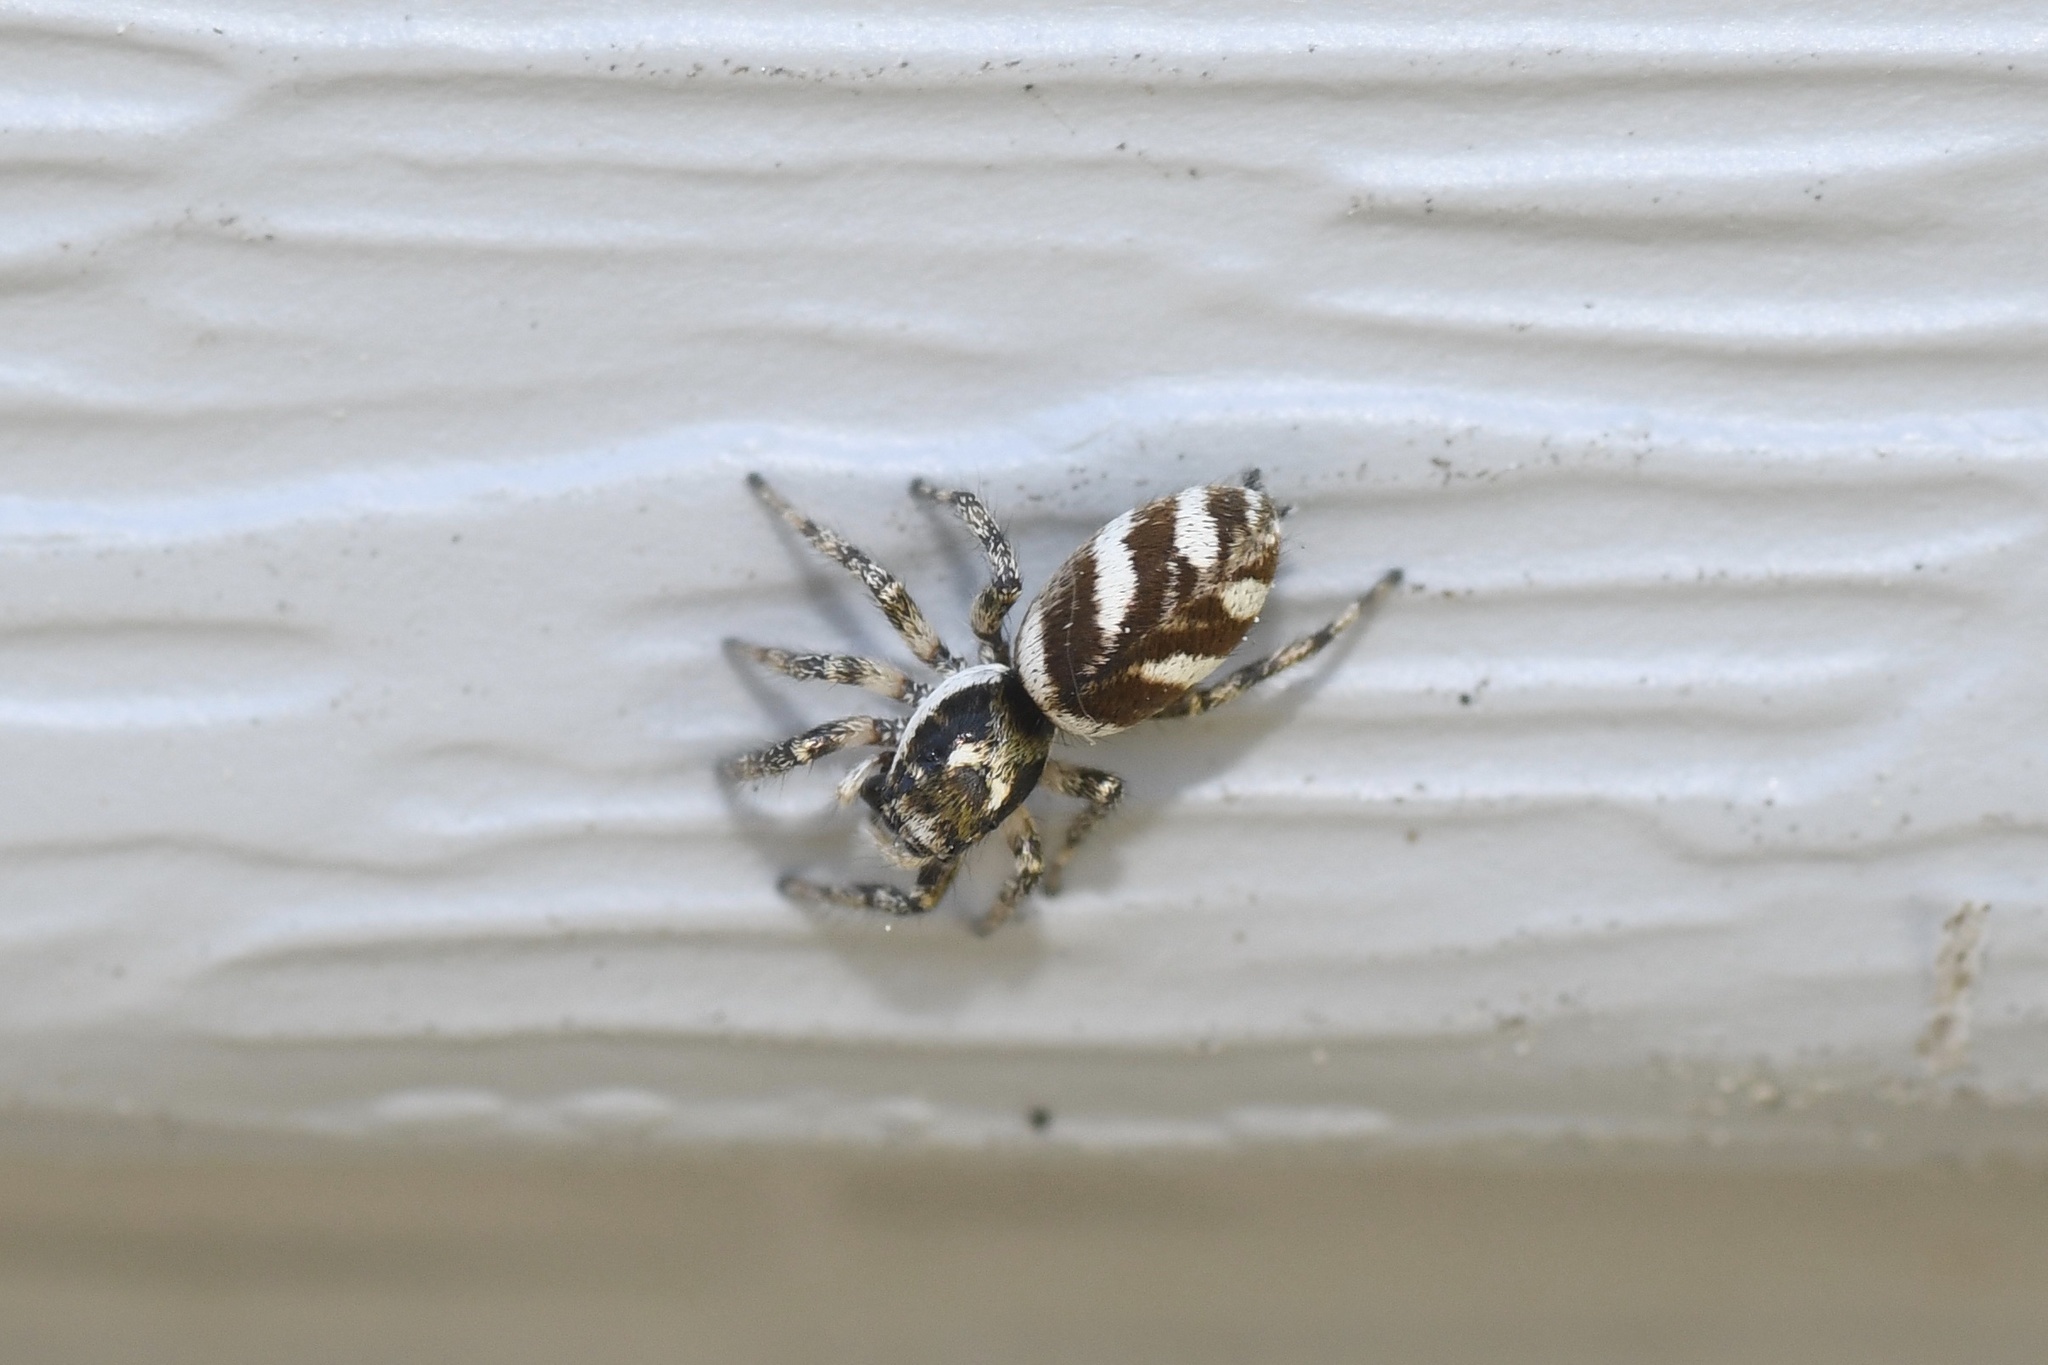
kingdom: Animalia
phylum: Arthropoda
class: Arachnida
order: Araneae
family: Salticidae
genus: Salticus
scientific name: Salticus scenicus
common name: Zebra jumper
